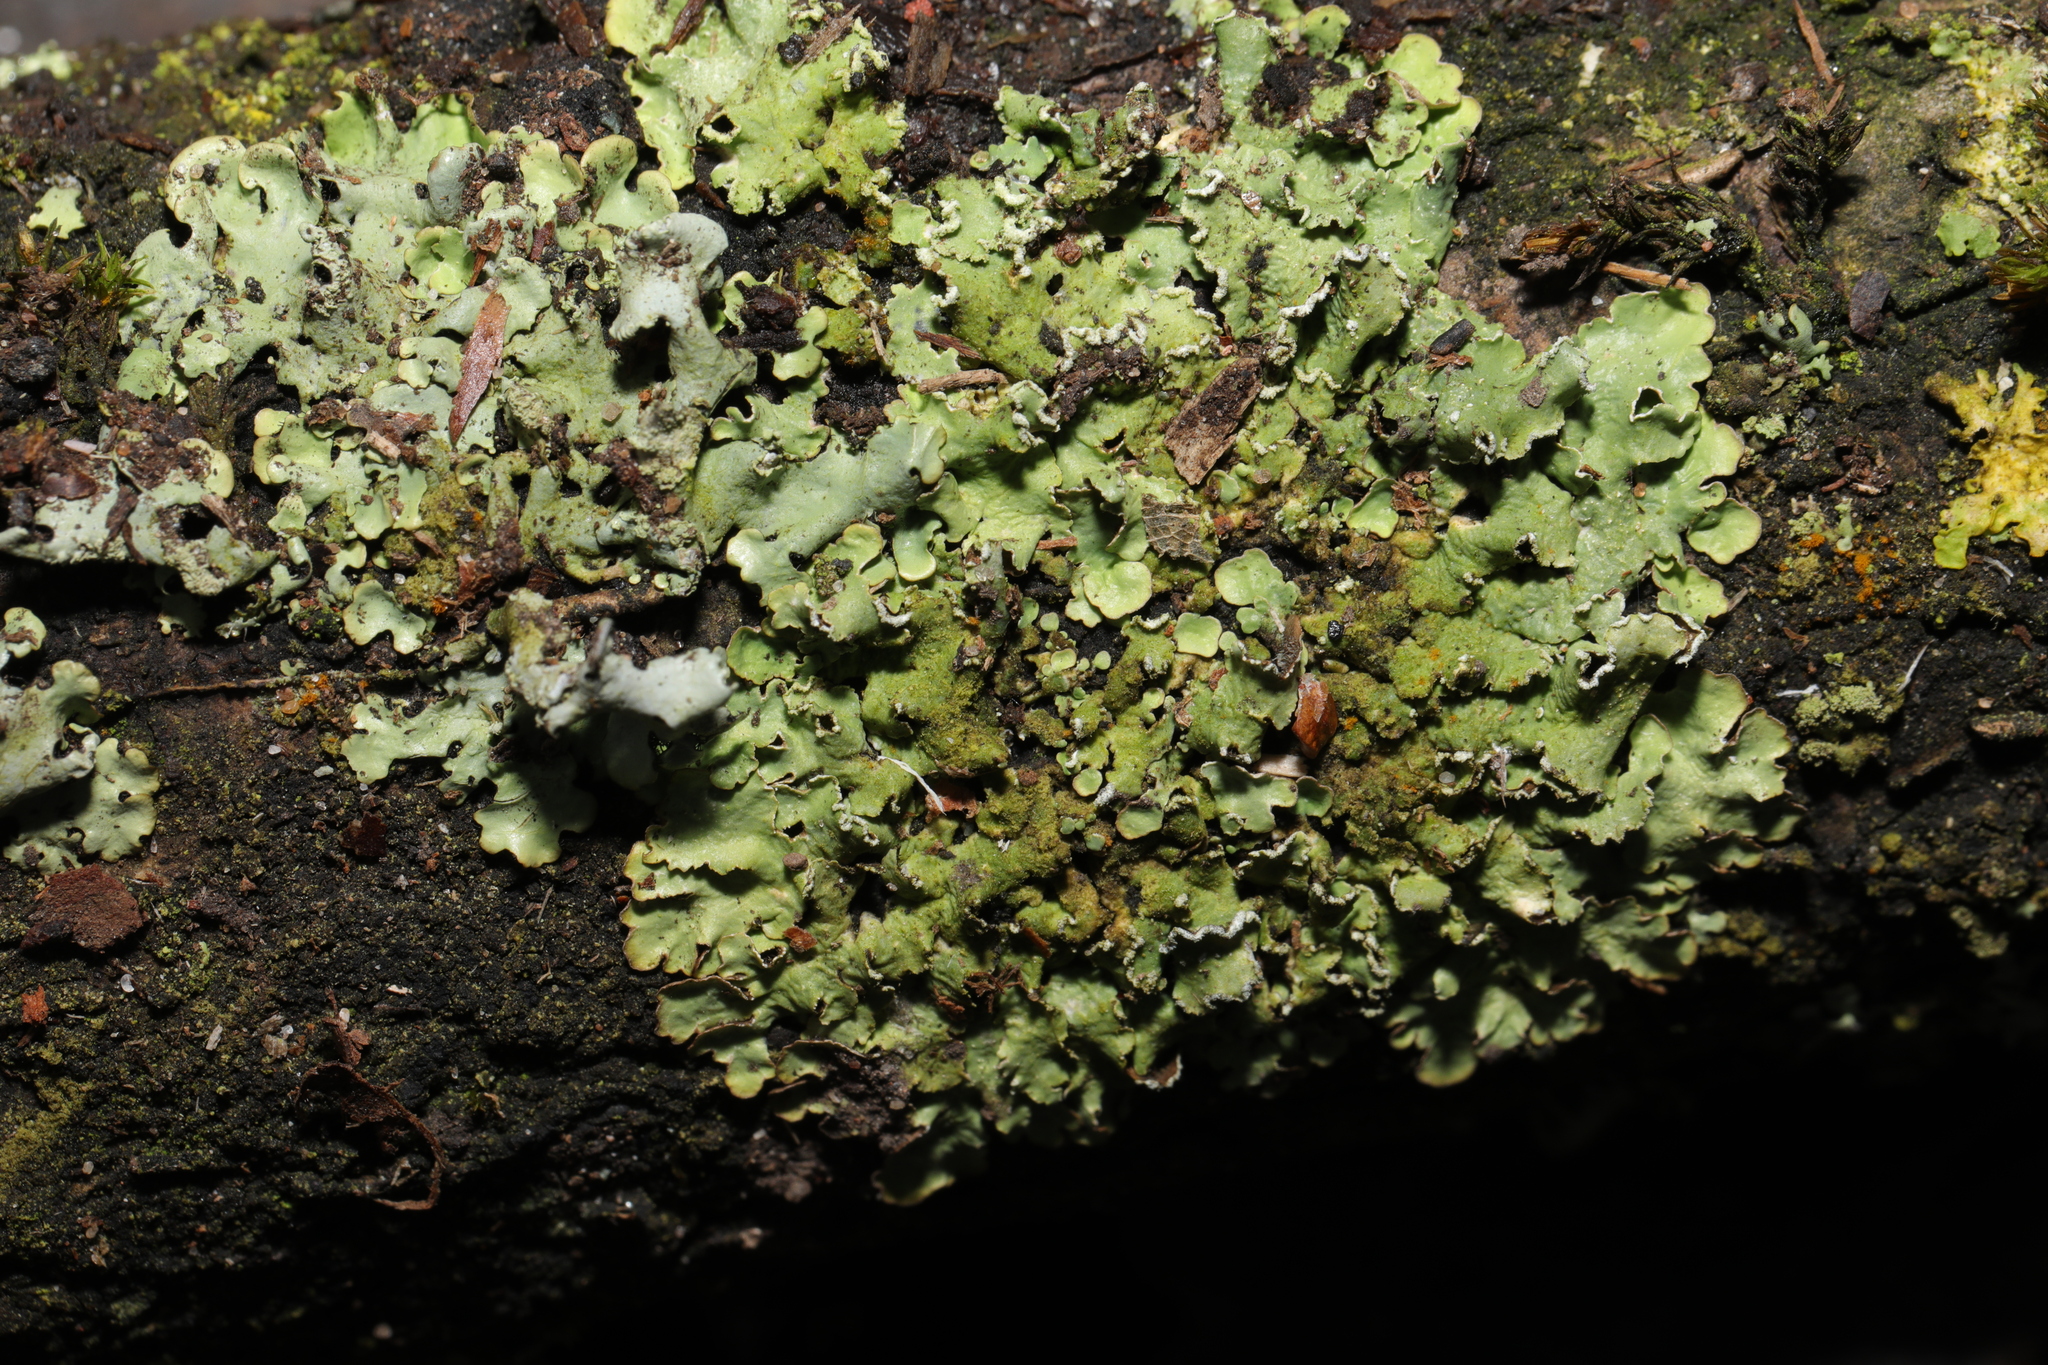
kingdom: Fungi
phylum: Ascomycota
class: Lecanoromycetes
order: Lecanorales
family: Parmeliaceae
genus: Hypotrachyna
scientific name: Hypotrachyna revoluta
